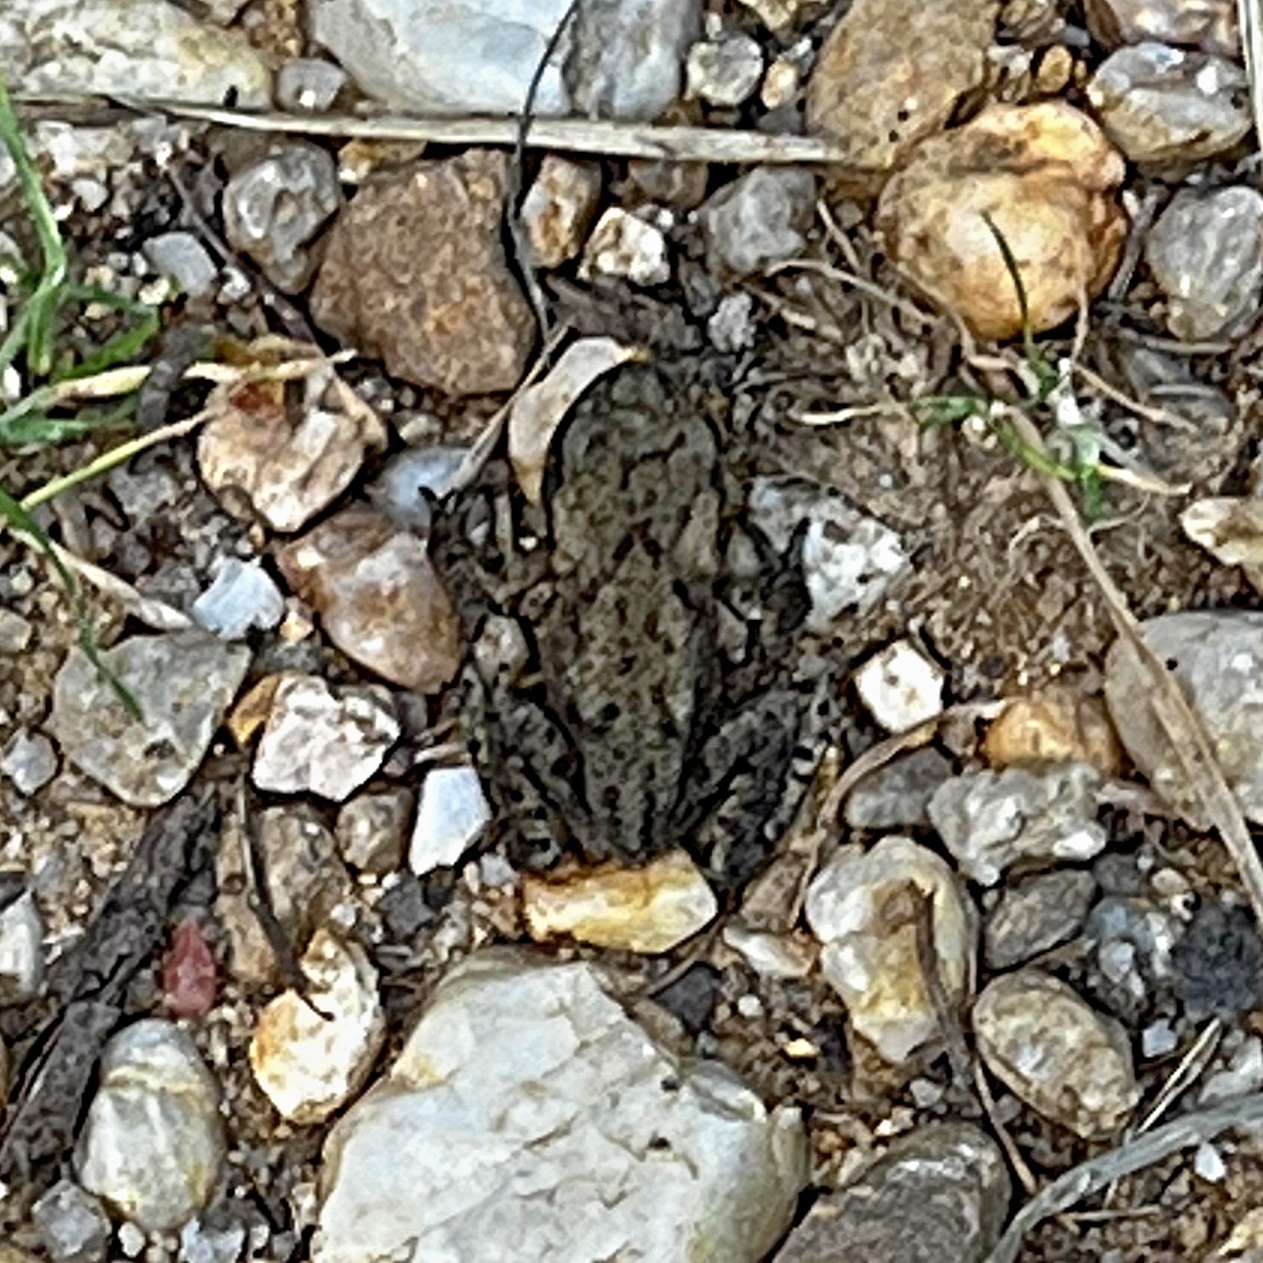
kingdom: Animalia
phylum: Chordata
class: Amphibia
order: Anura
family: Bufonidae
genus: Bufo
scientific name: Bufo bufo
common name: Common toad
